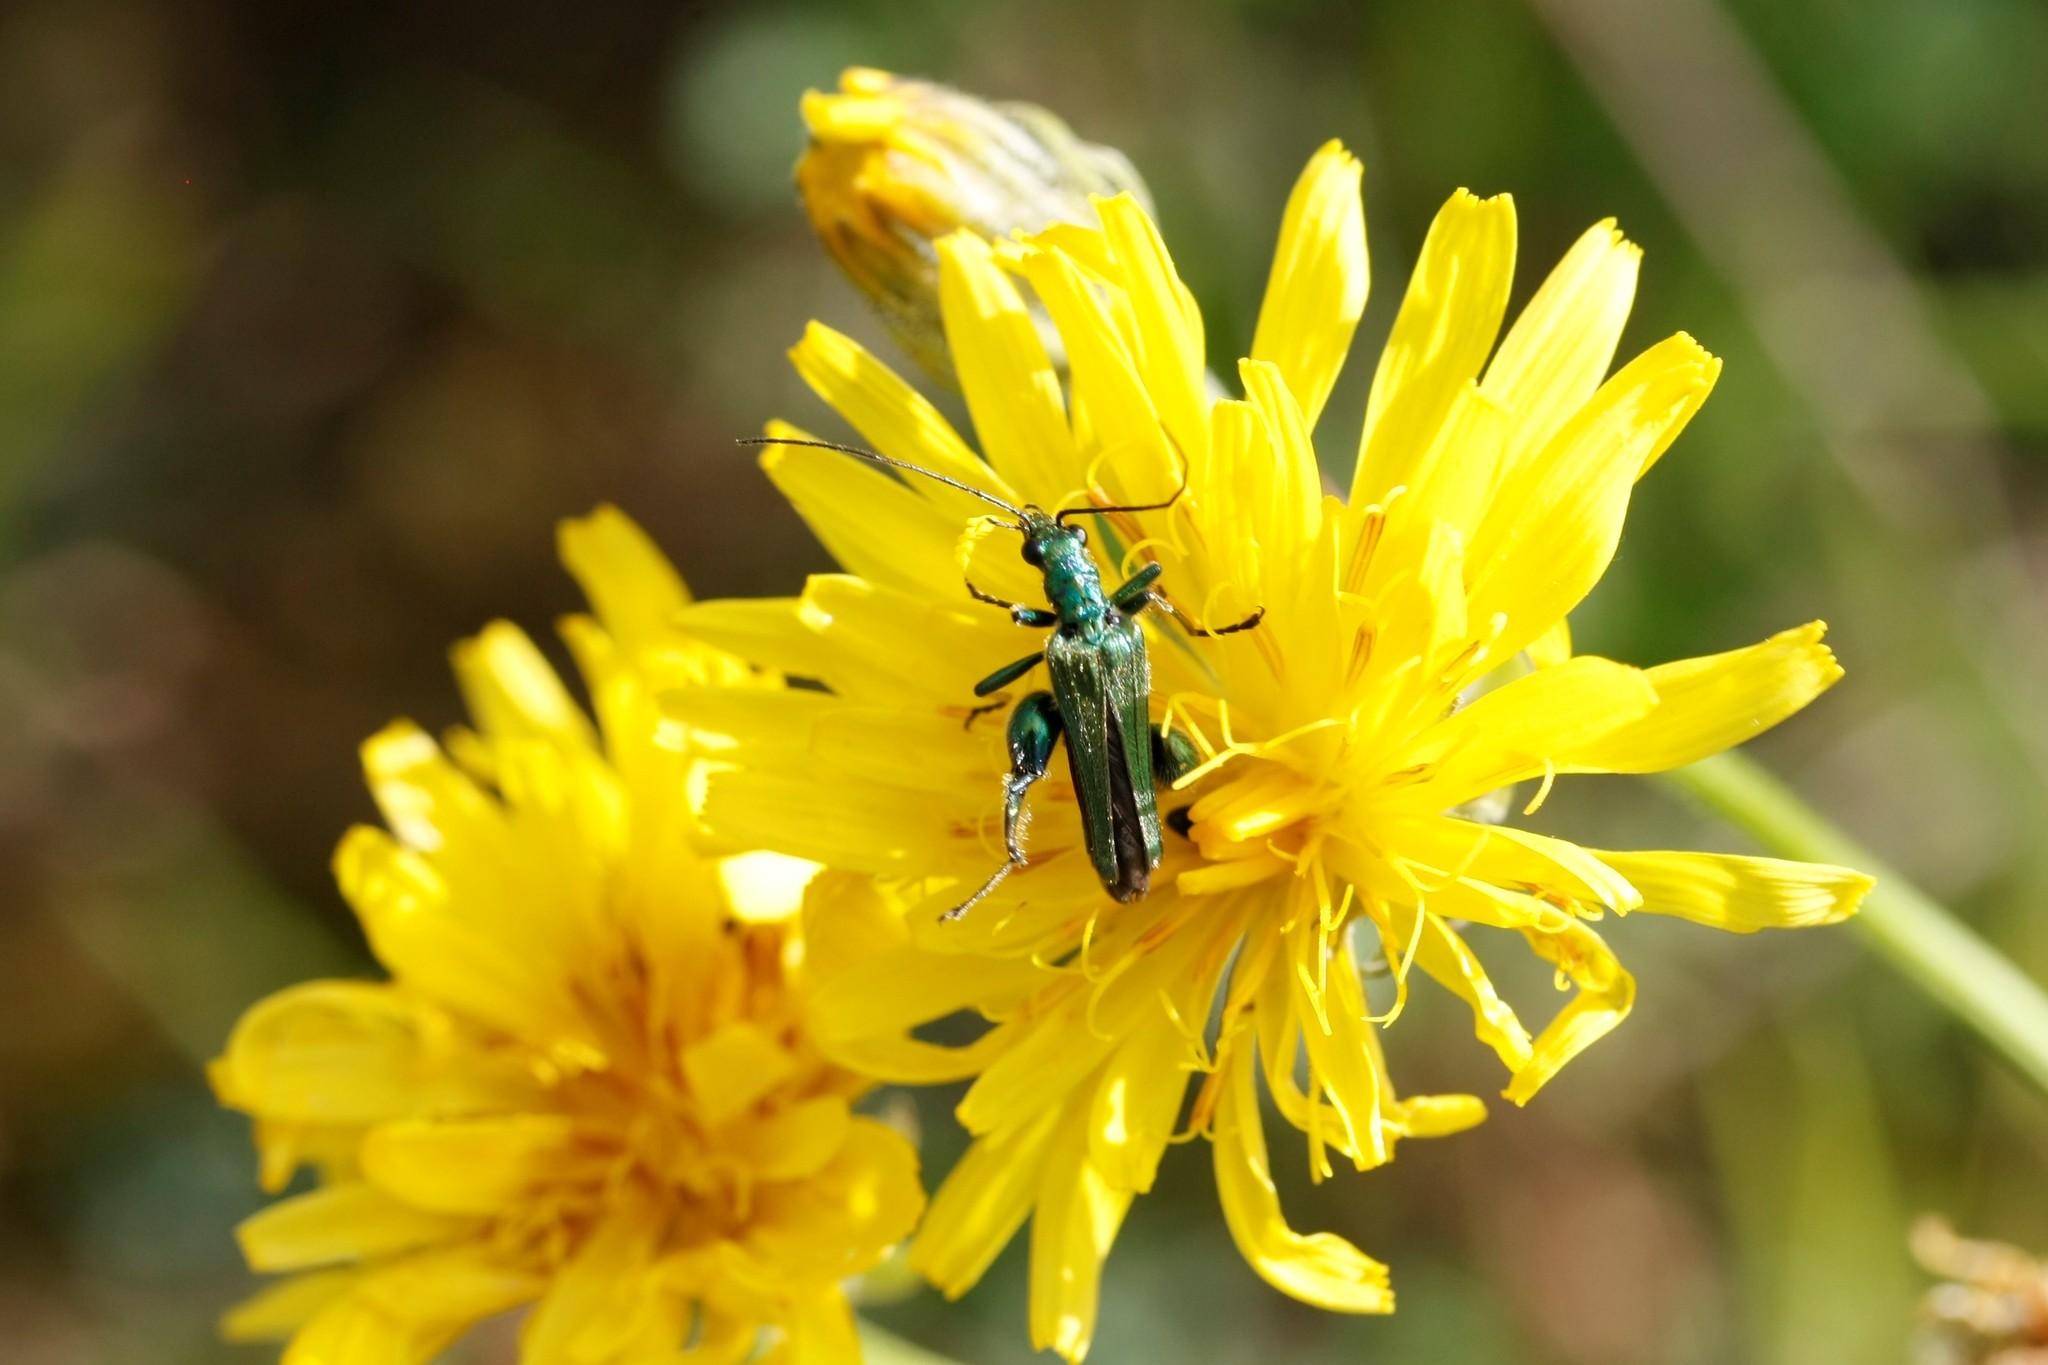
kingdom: Animalia
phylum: Arthropoda
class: Insecta
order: Coleoptera
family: Oedemeridae
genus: Oedemera
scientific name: Oedemera nobilis
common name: Swollen-thighed beetle
